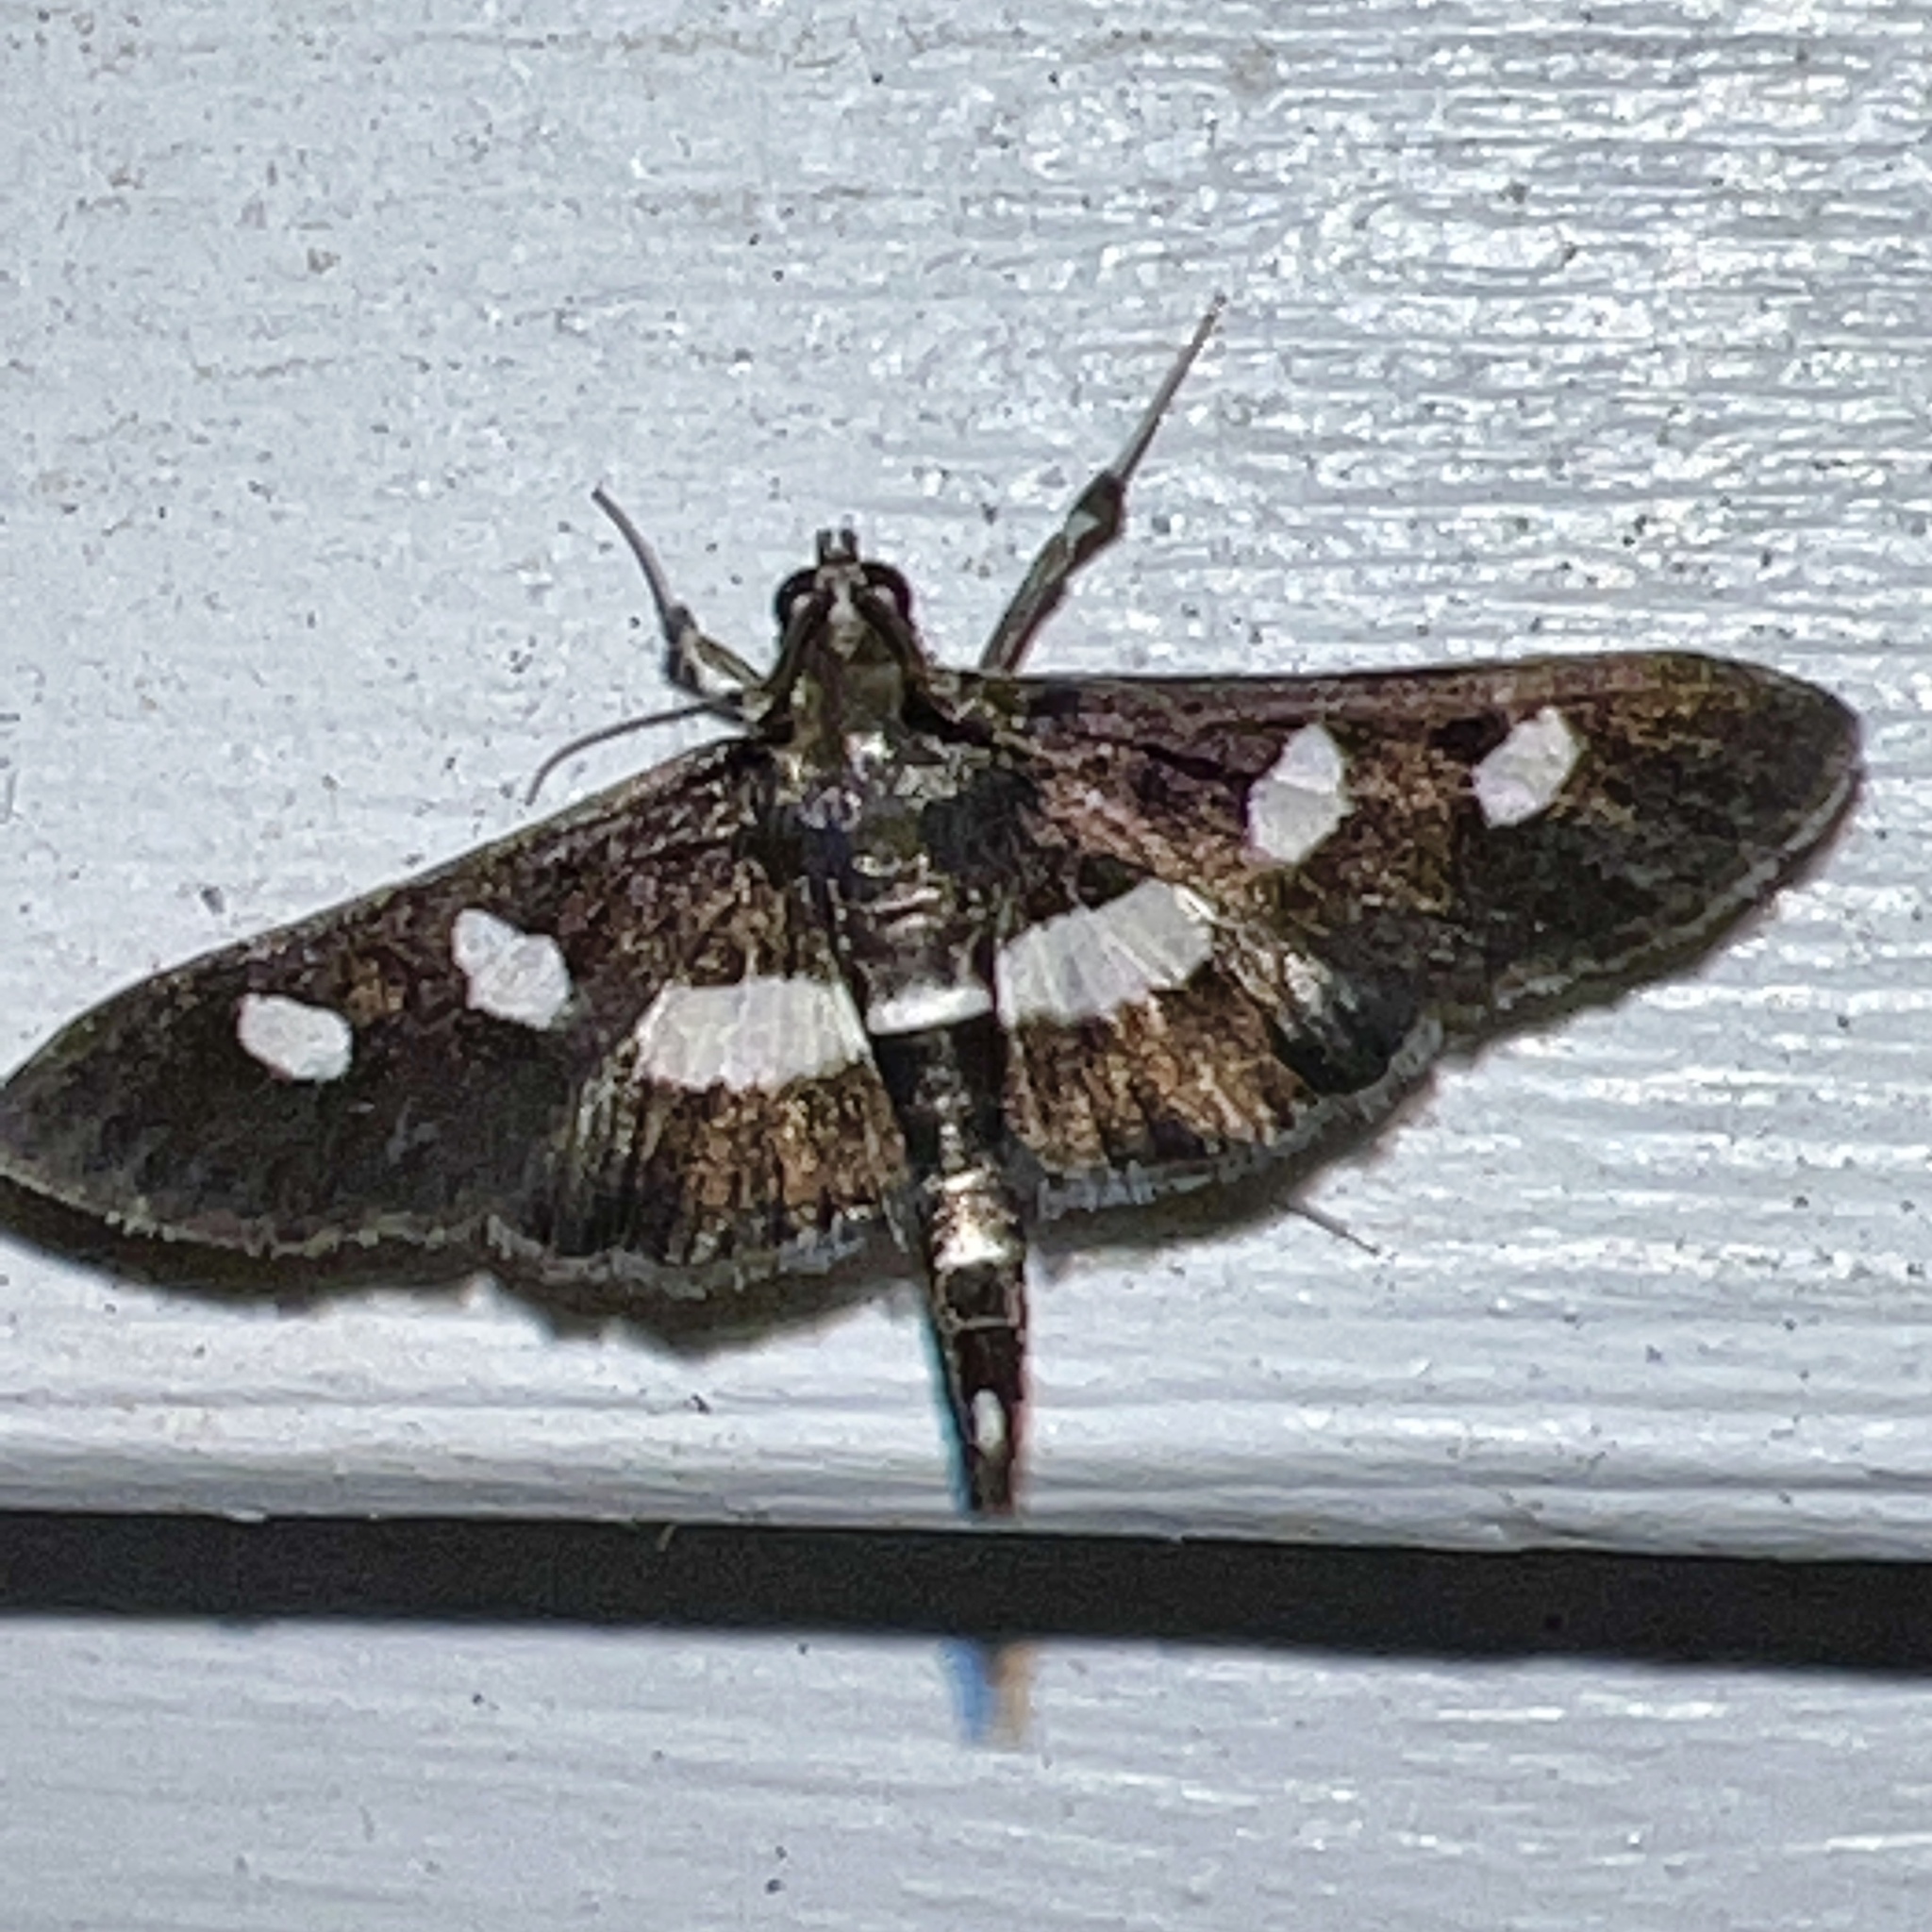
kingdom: Animalia
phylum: Arthropoda
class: Insecta
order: Lepidoptera
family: Crambidae
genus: Desmia
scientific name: Desmia funeralis
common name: Grape leaf folder moth
